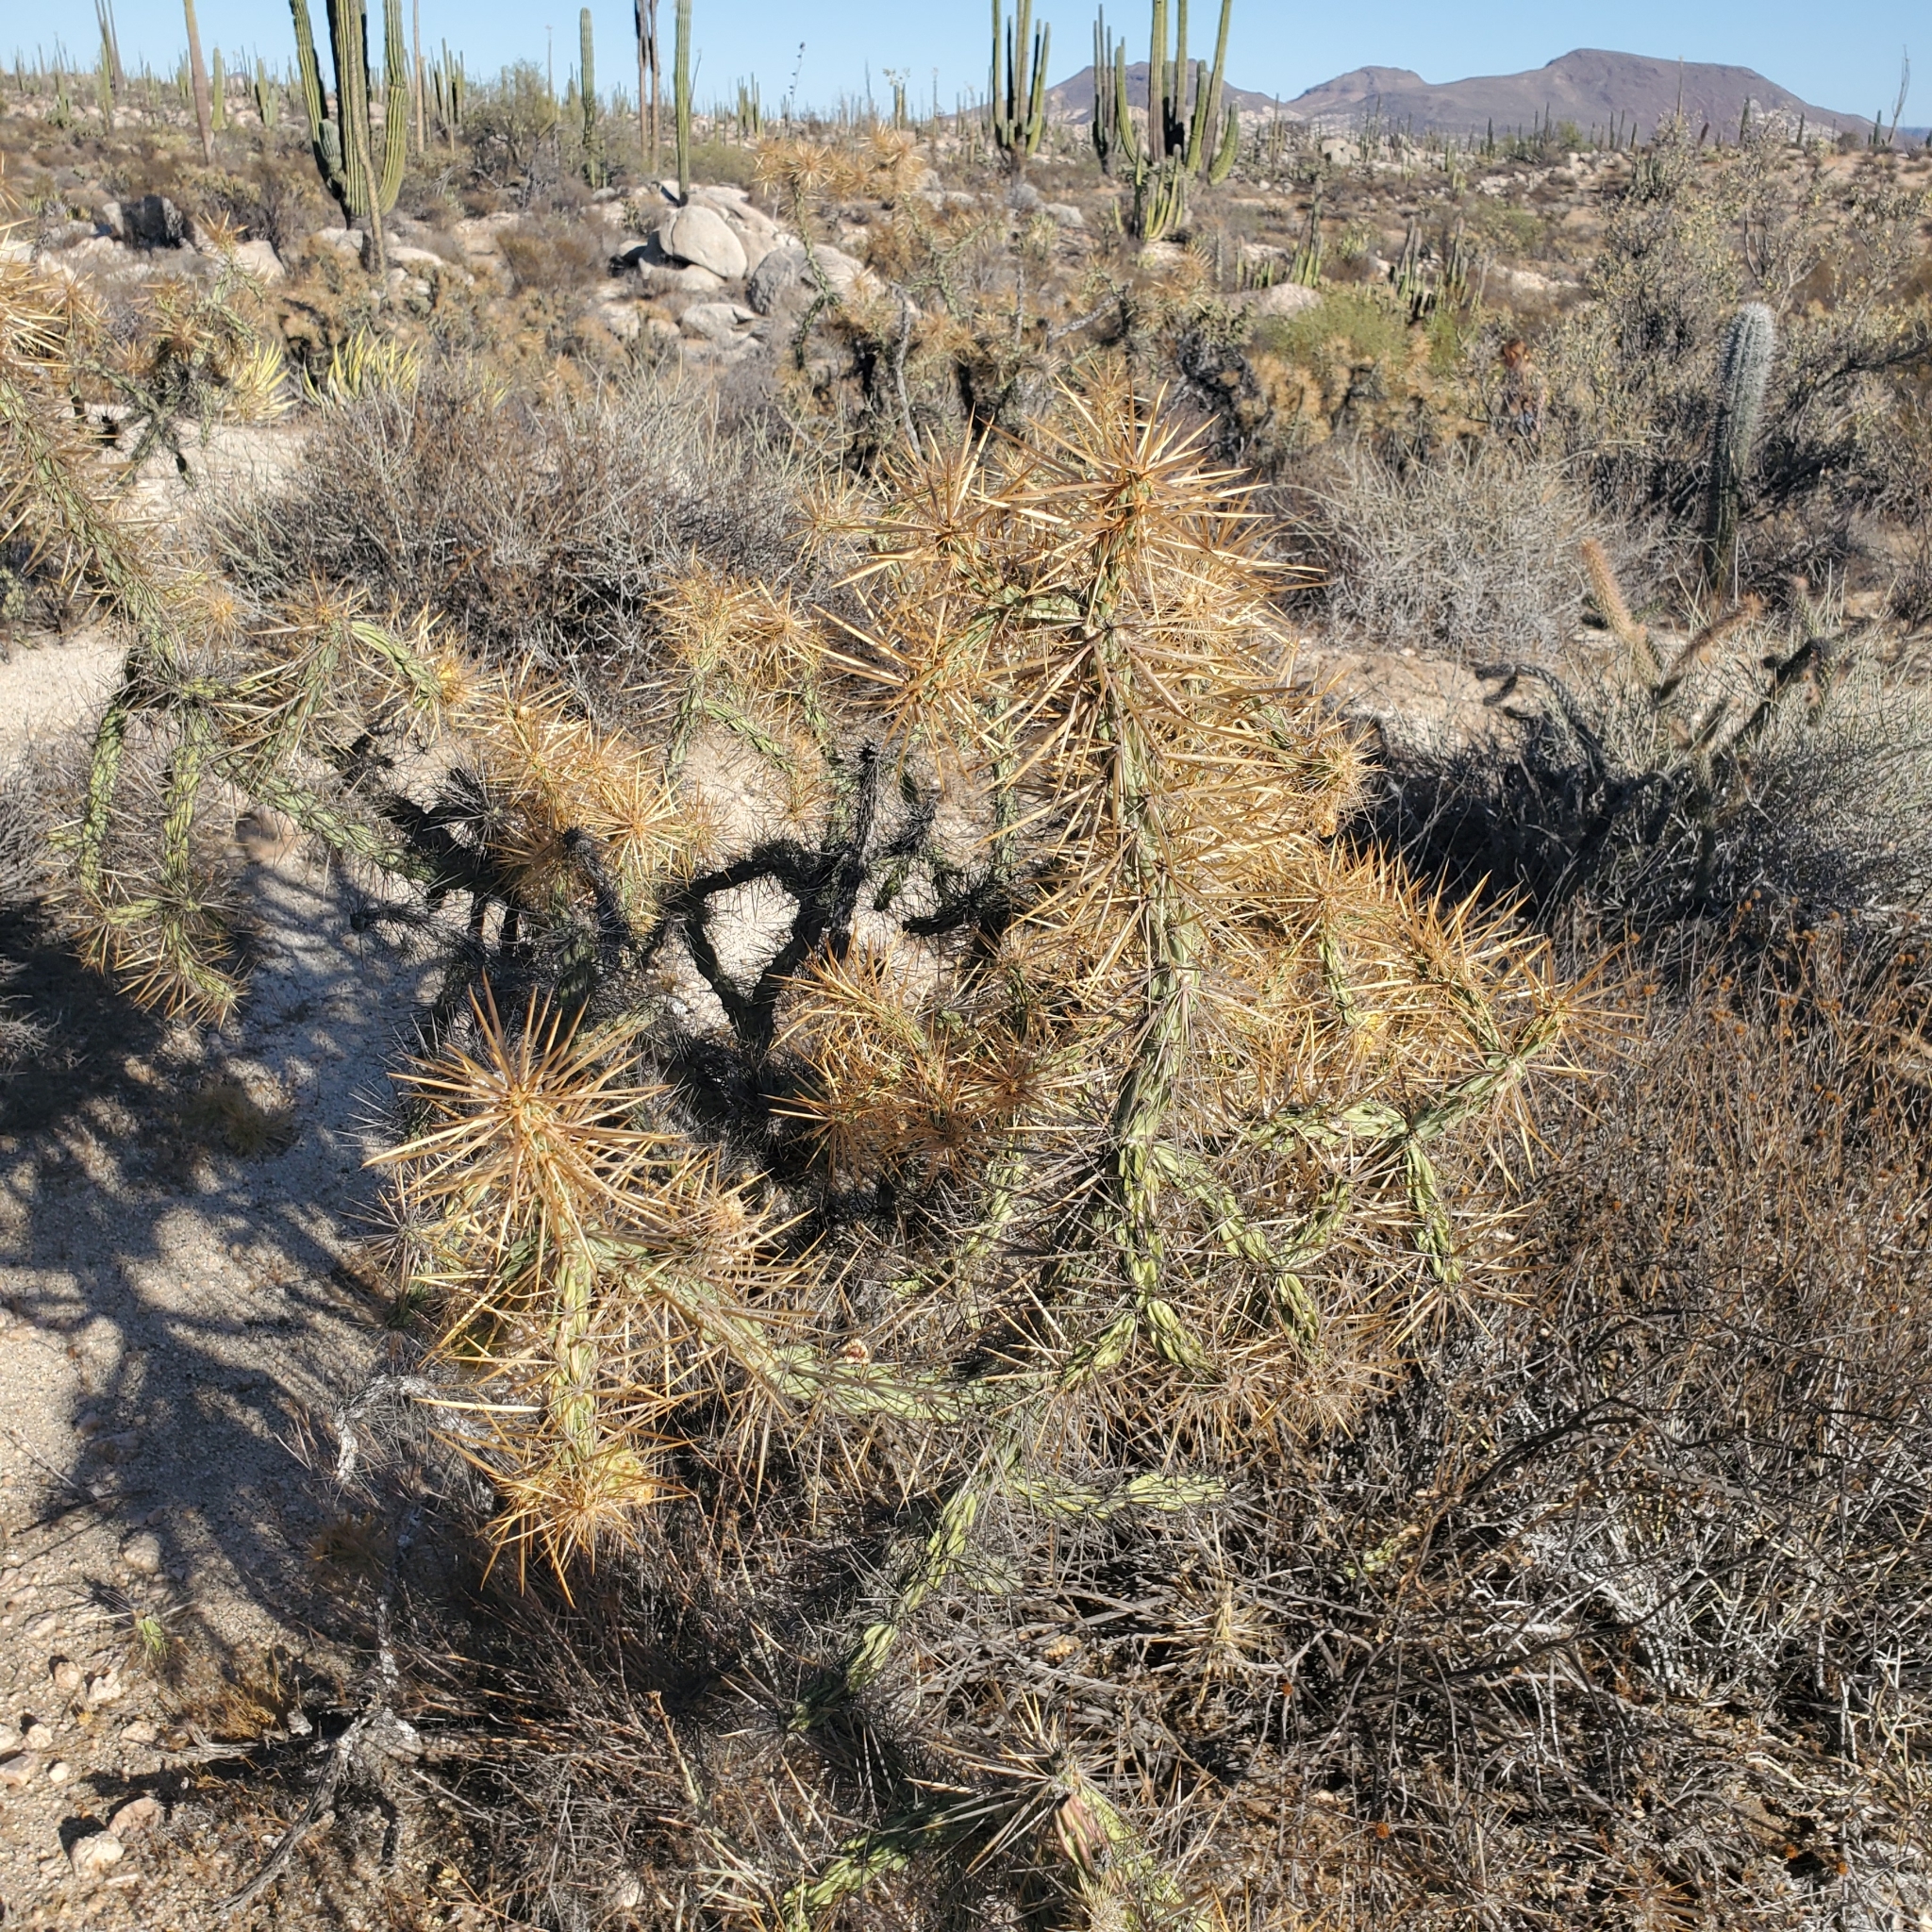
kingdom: Plantae
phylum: Tracheophyta
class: Magnoliopsida
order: Caryophyllales
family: Cactaceae
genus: Cylindropuntia
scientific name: Cylindropuntia molesta
